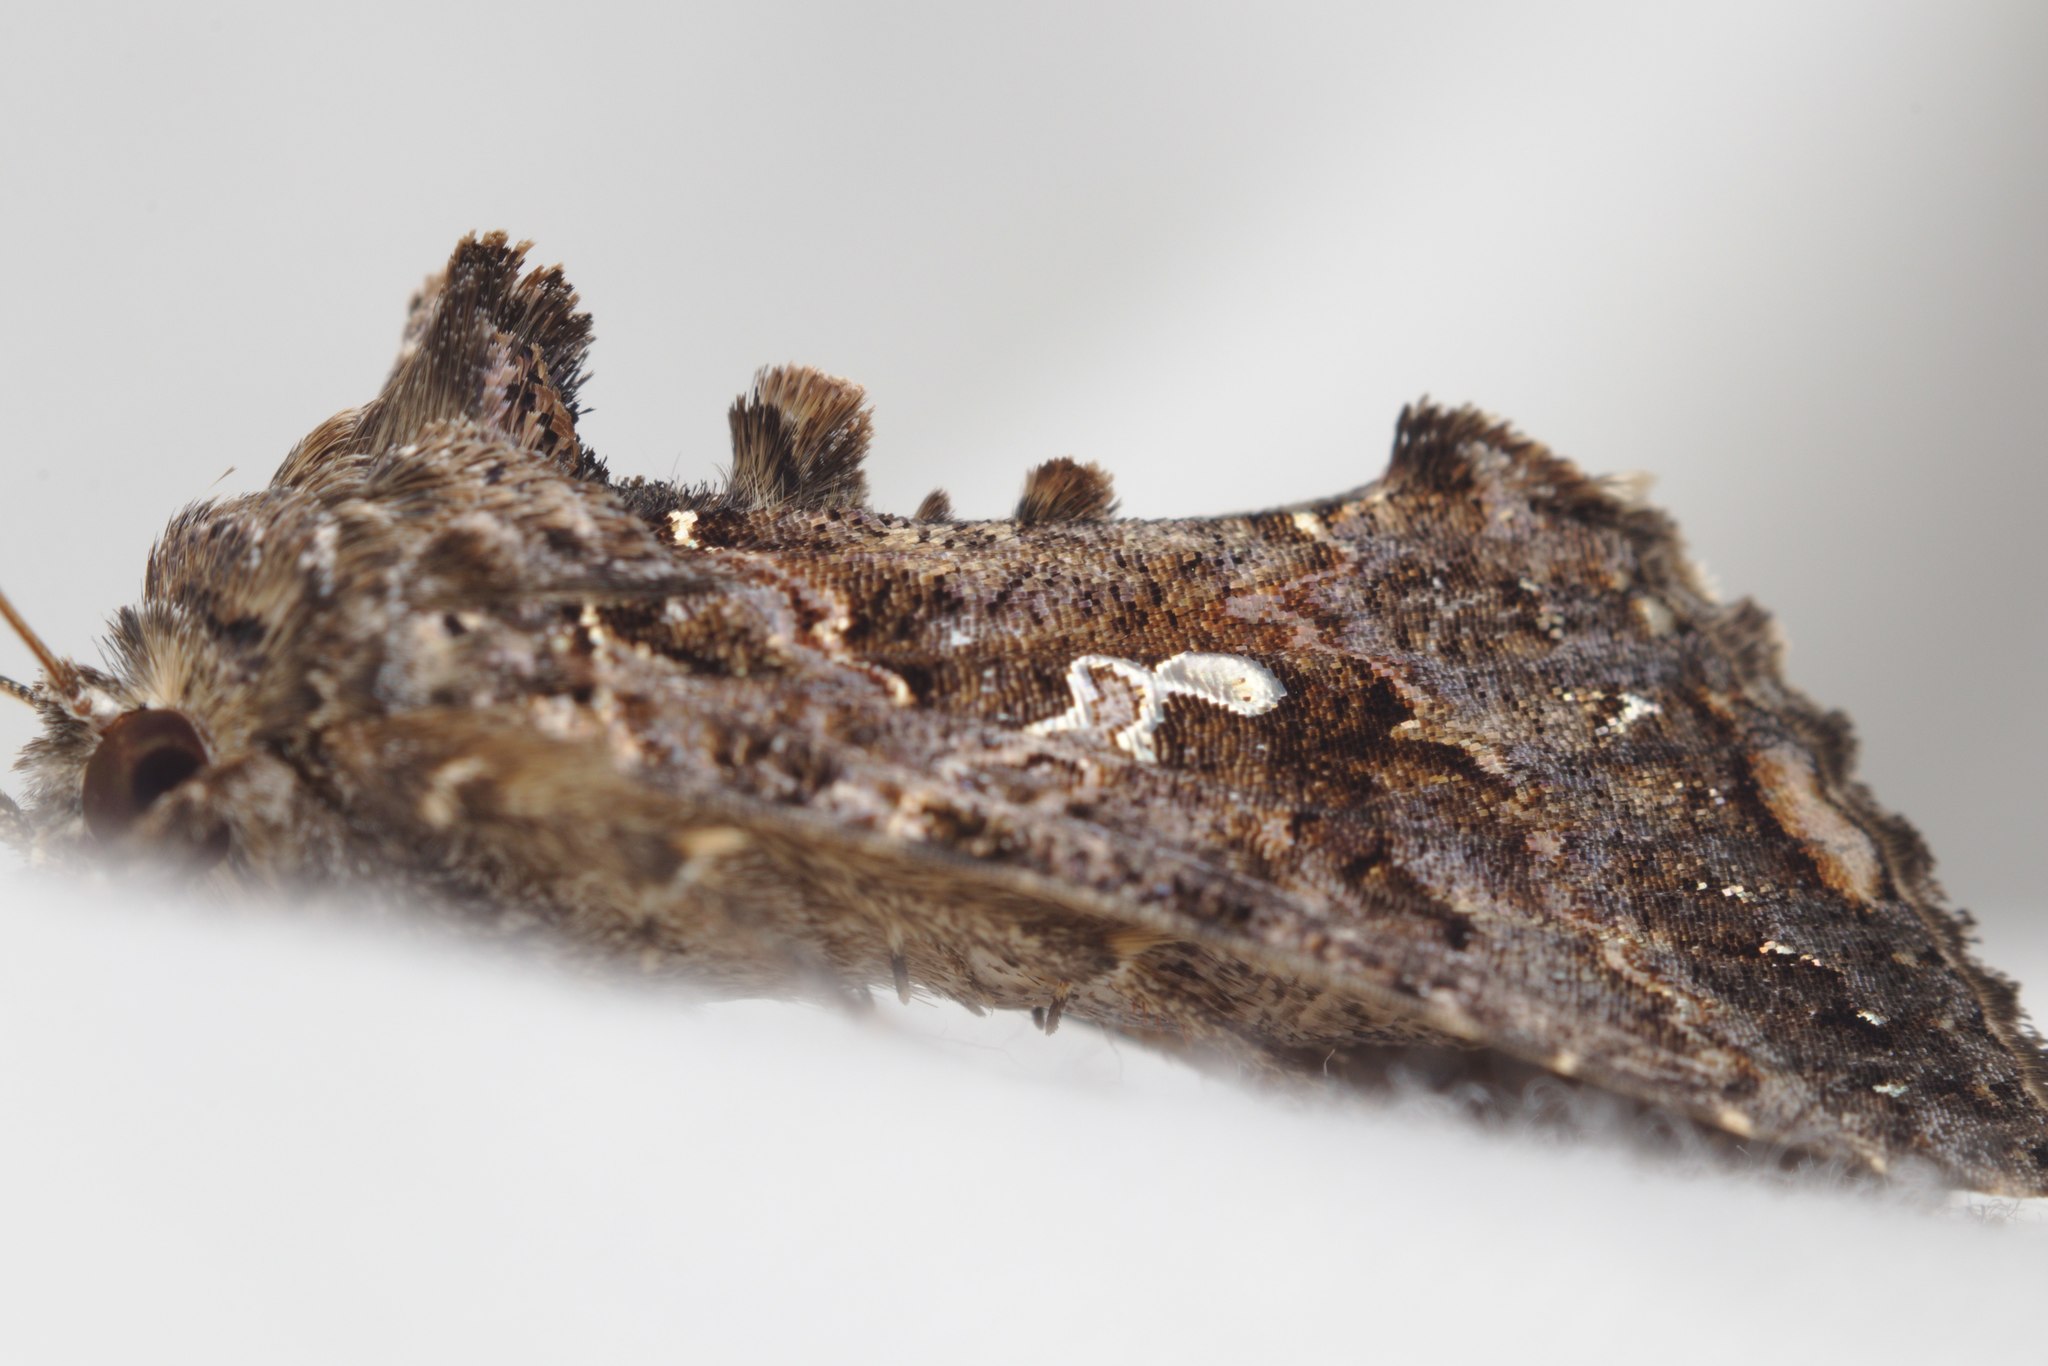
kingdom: Animalia
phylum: Arthropoda
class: Insecta
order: Lepidoptera
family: Noctuidae
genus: Ctenoplusia
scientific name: Ctenoplusia limbirena
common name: Scar bank gem
